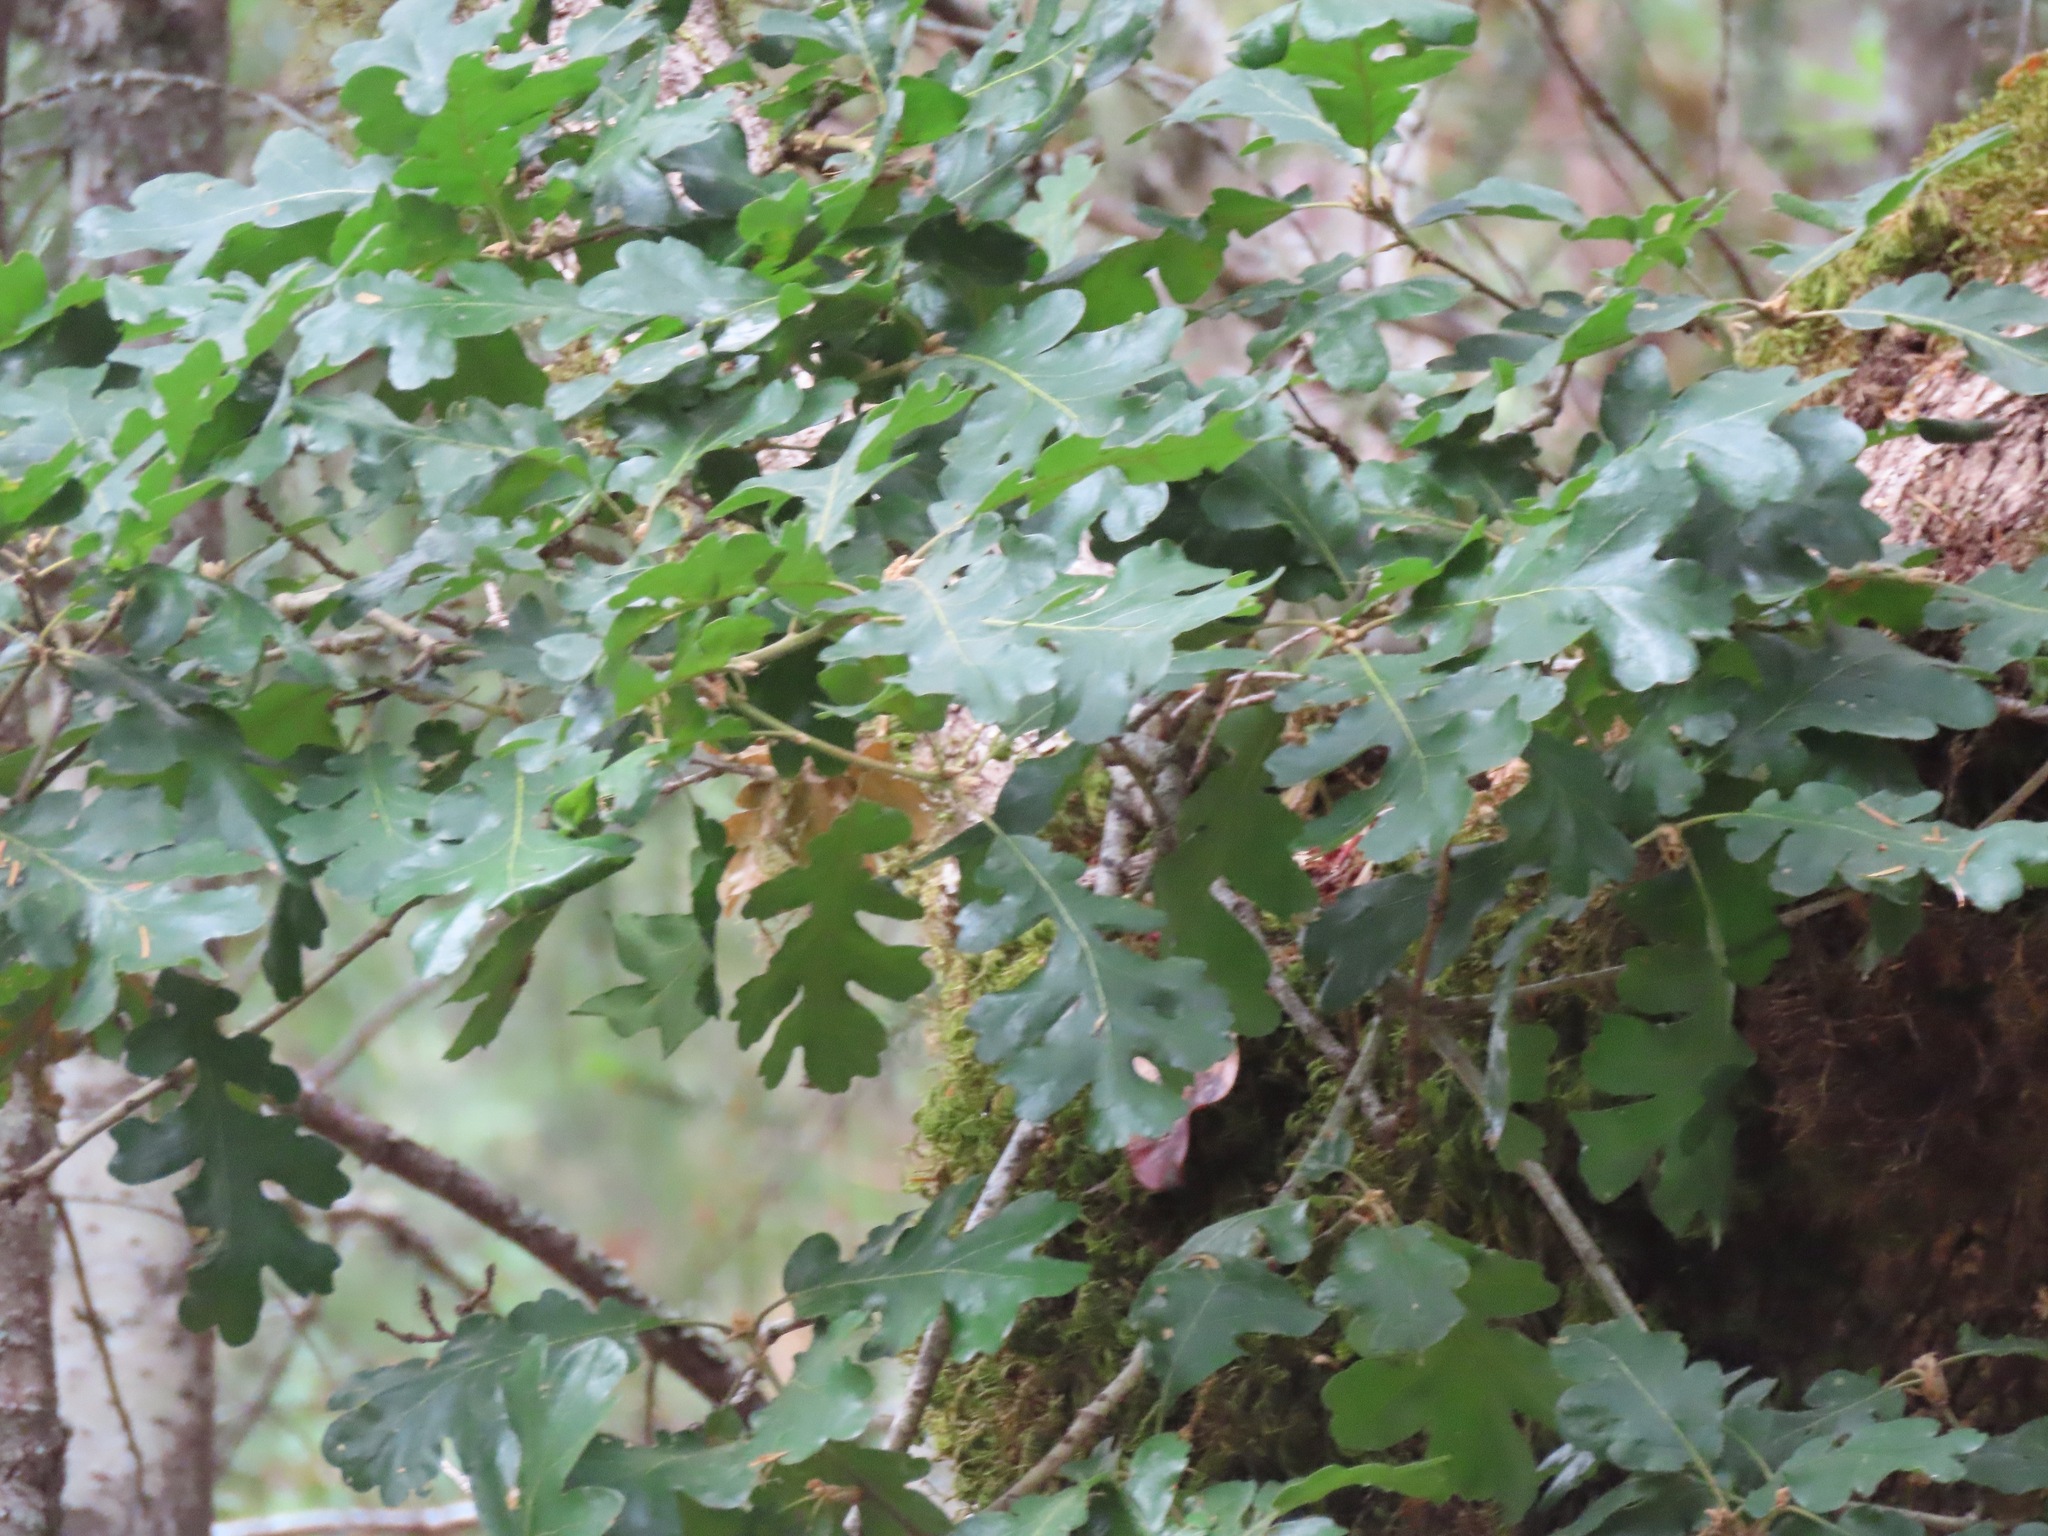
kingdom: Plantae
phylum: Tracheophyta
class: Magnoliopsida
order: Fagales
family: Fagaceae
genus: Quercus
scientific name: Quercus garryana
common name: Garry oak
